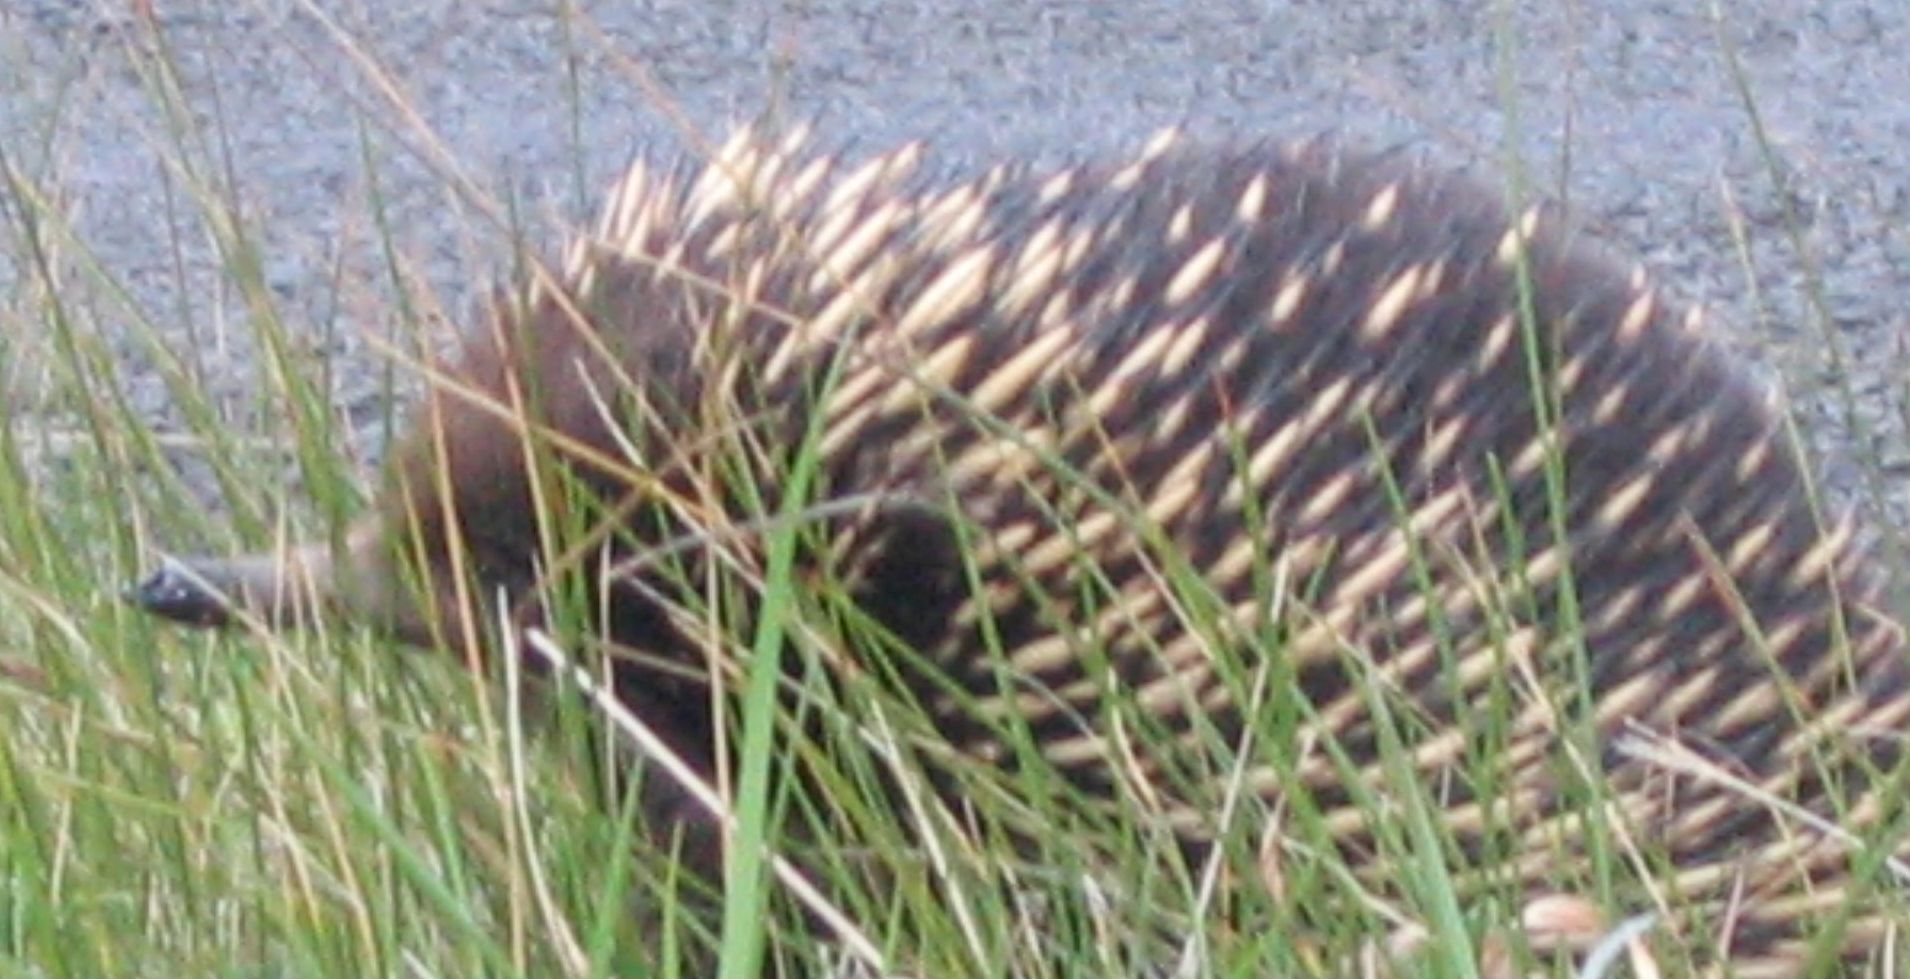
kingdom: Animalia
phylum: Chordata
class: Mammalia
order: Monotremata
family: Tachyglossidae
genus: Tachyglossus
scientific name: Tachyglossus aculeatus
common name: Short-beaked echidna
